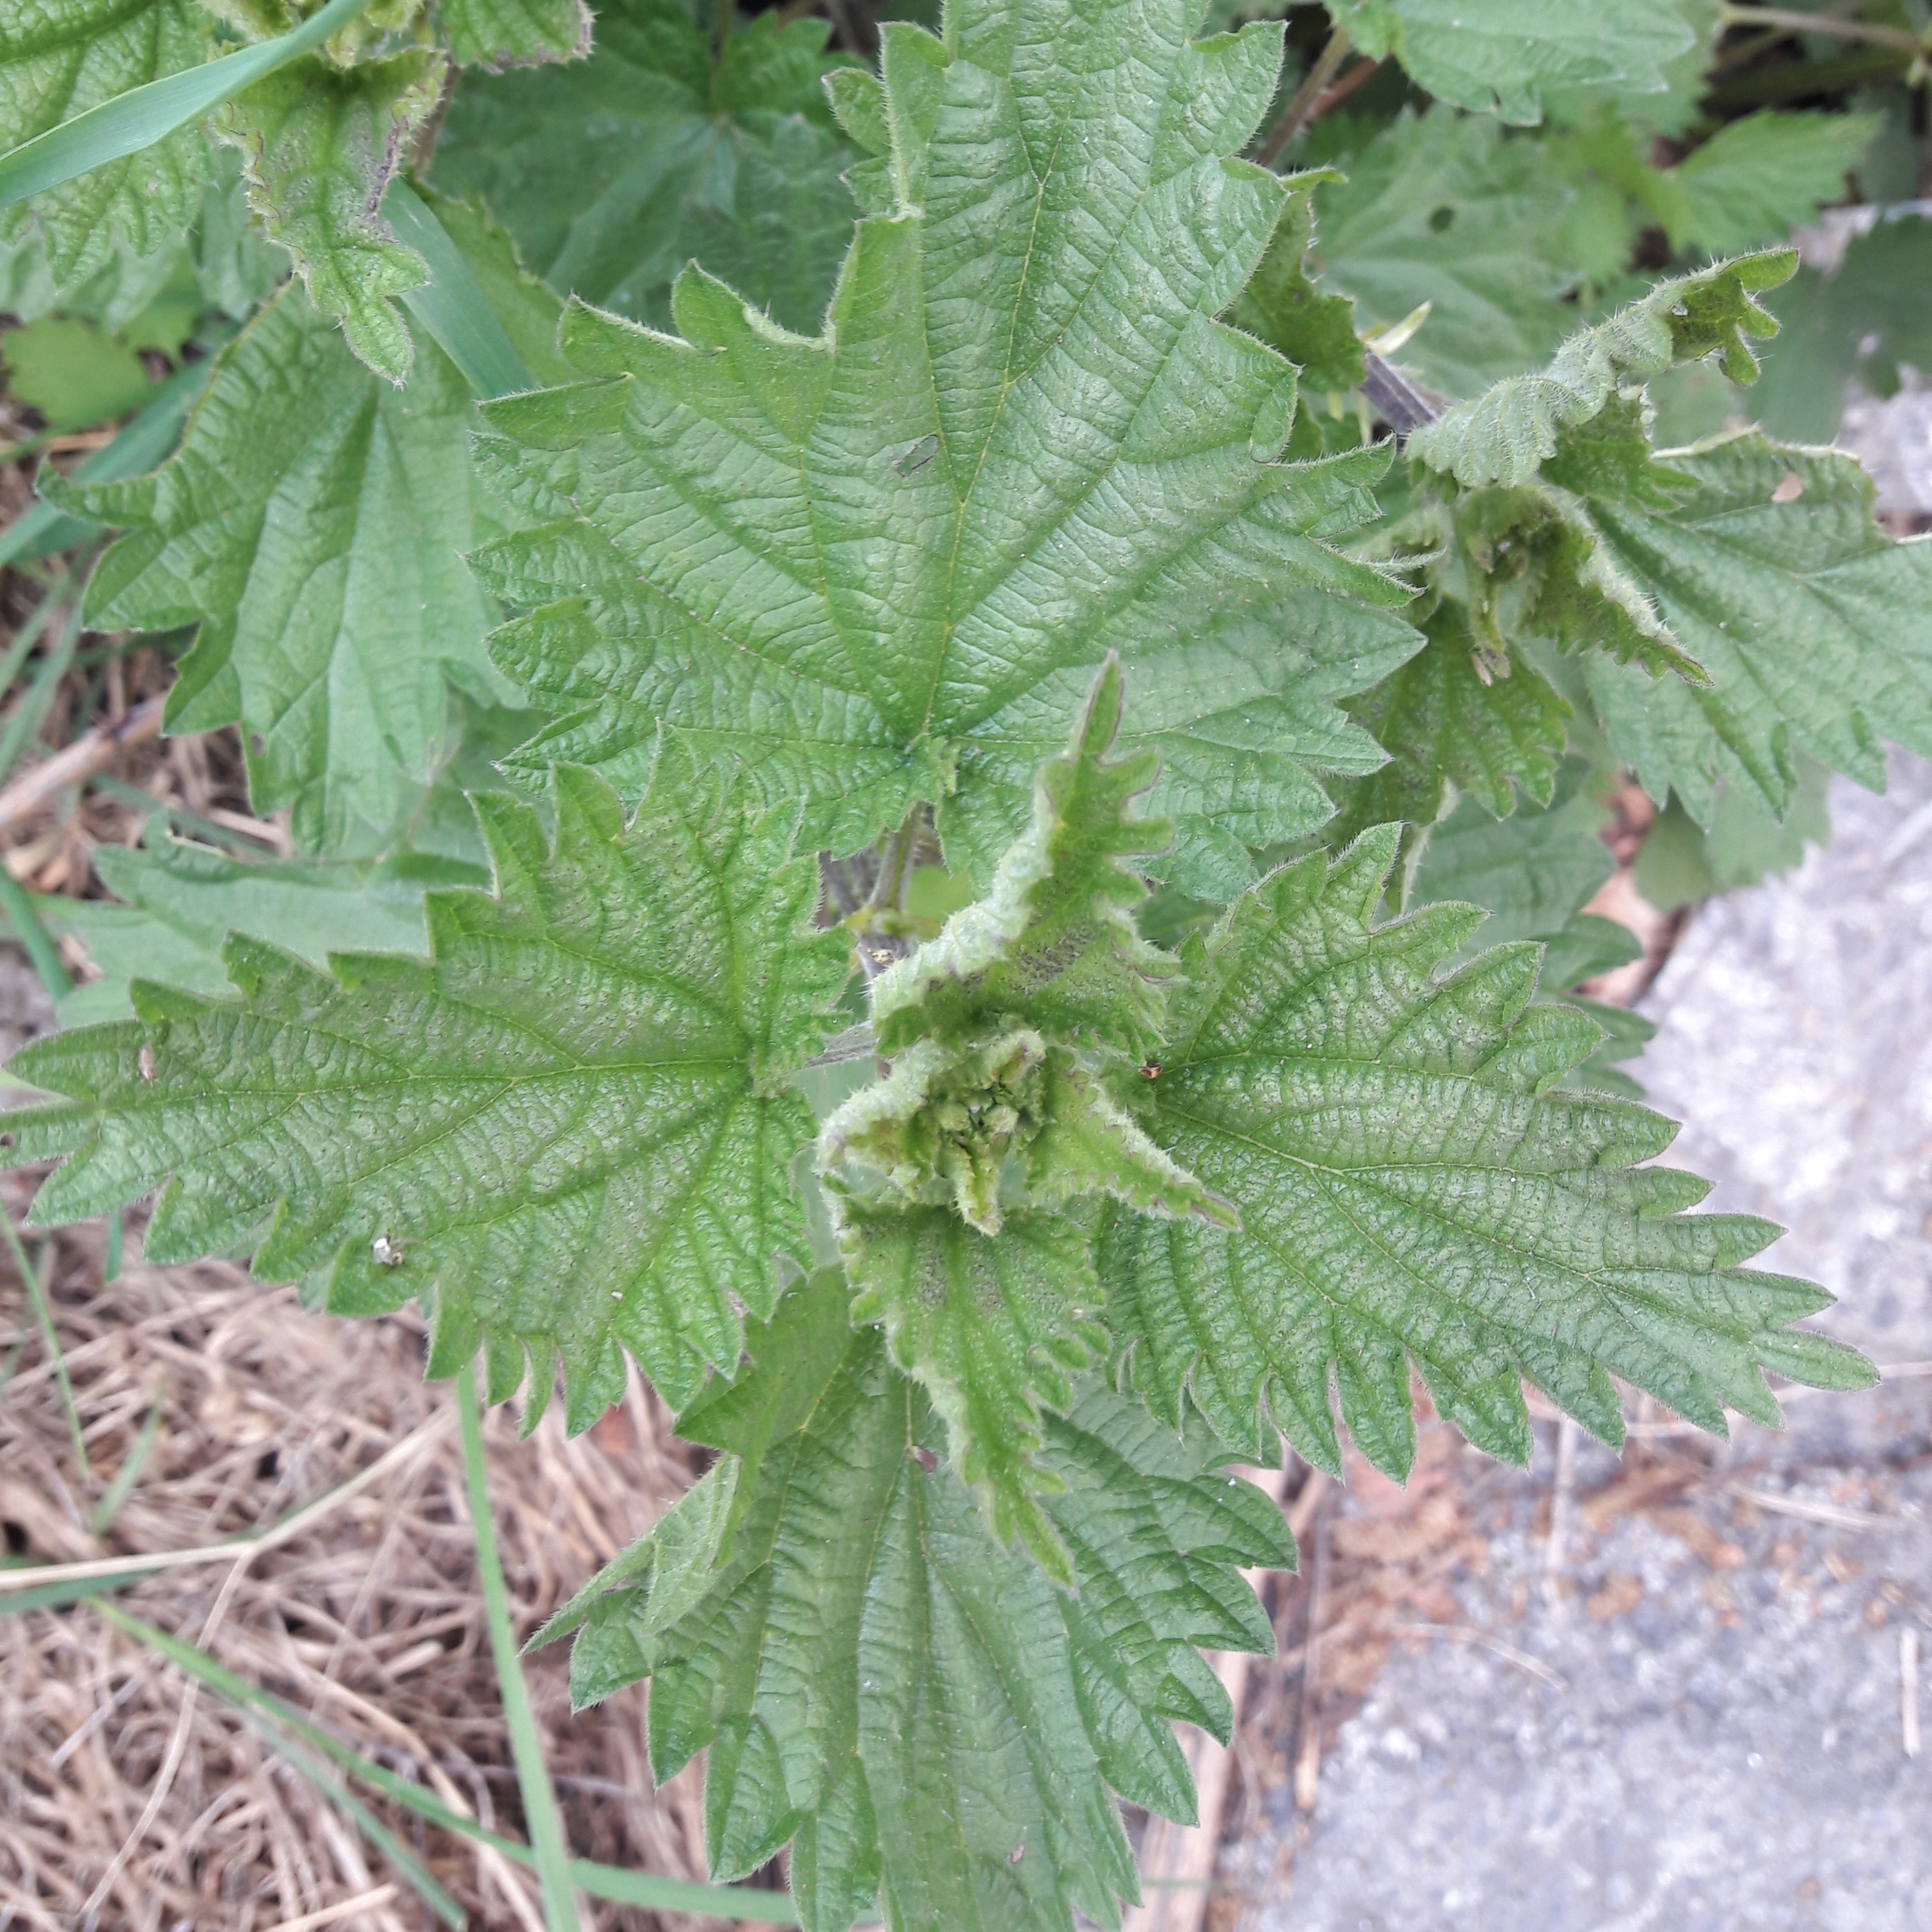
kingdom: Plantae
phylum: Tracheophyta
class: Magnoliopsida
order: Rosales
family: Urticaceae
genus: Urtica
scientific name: Urtica dioica
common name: Common nettle
